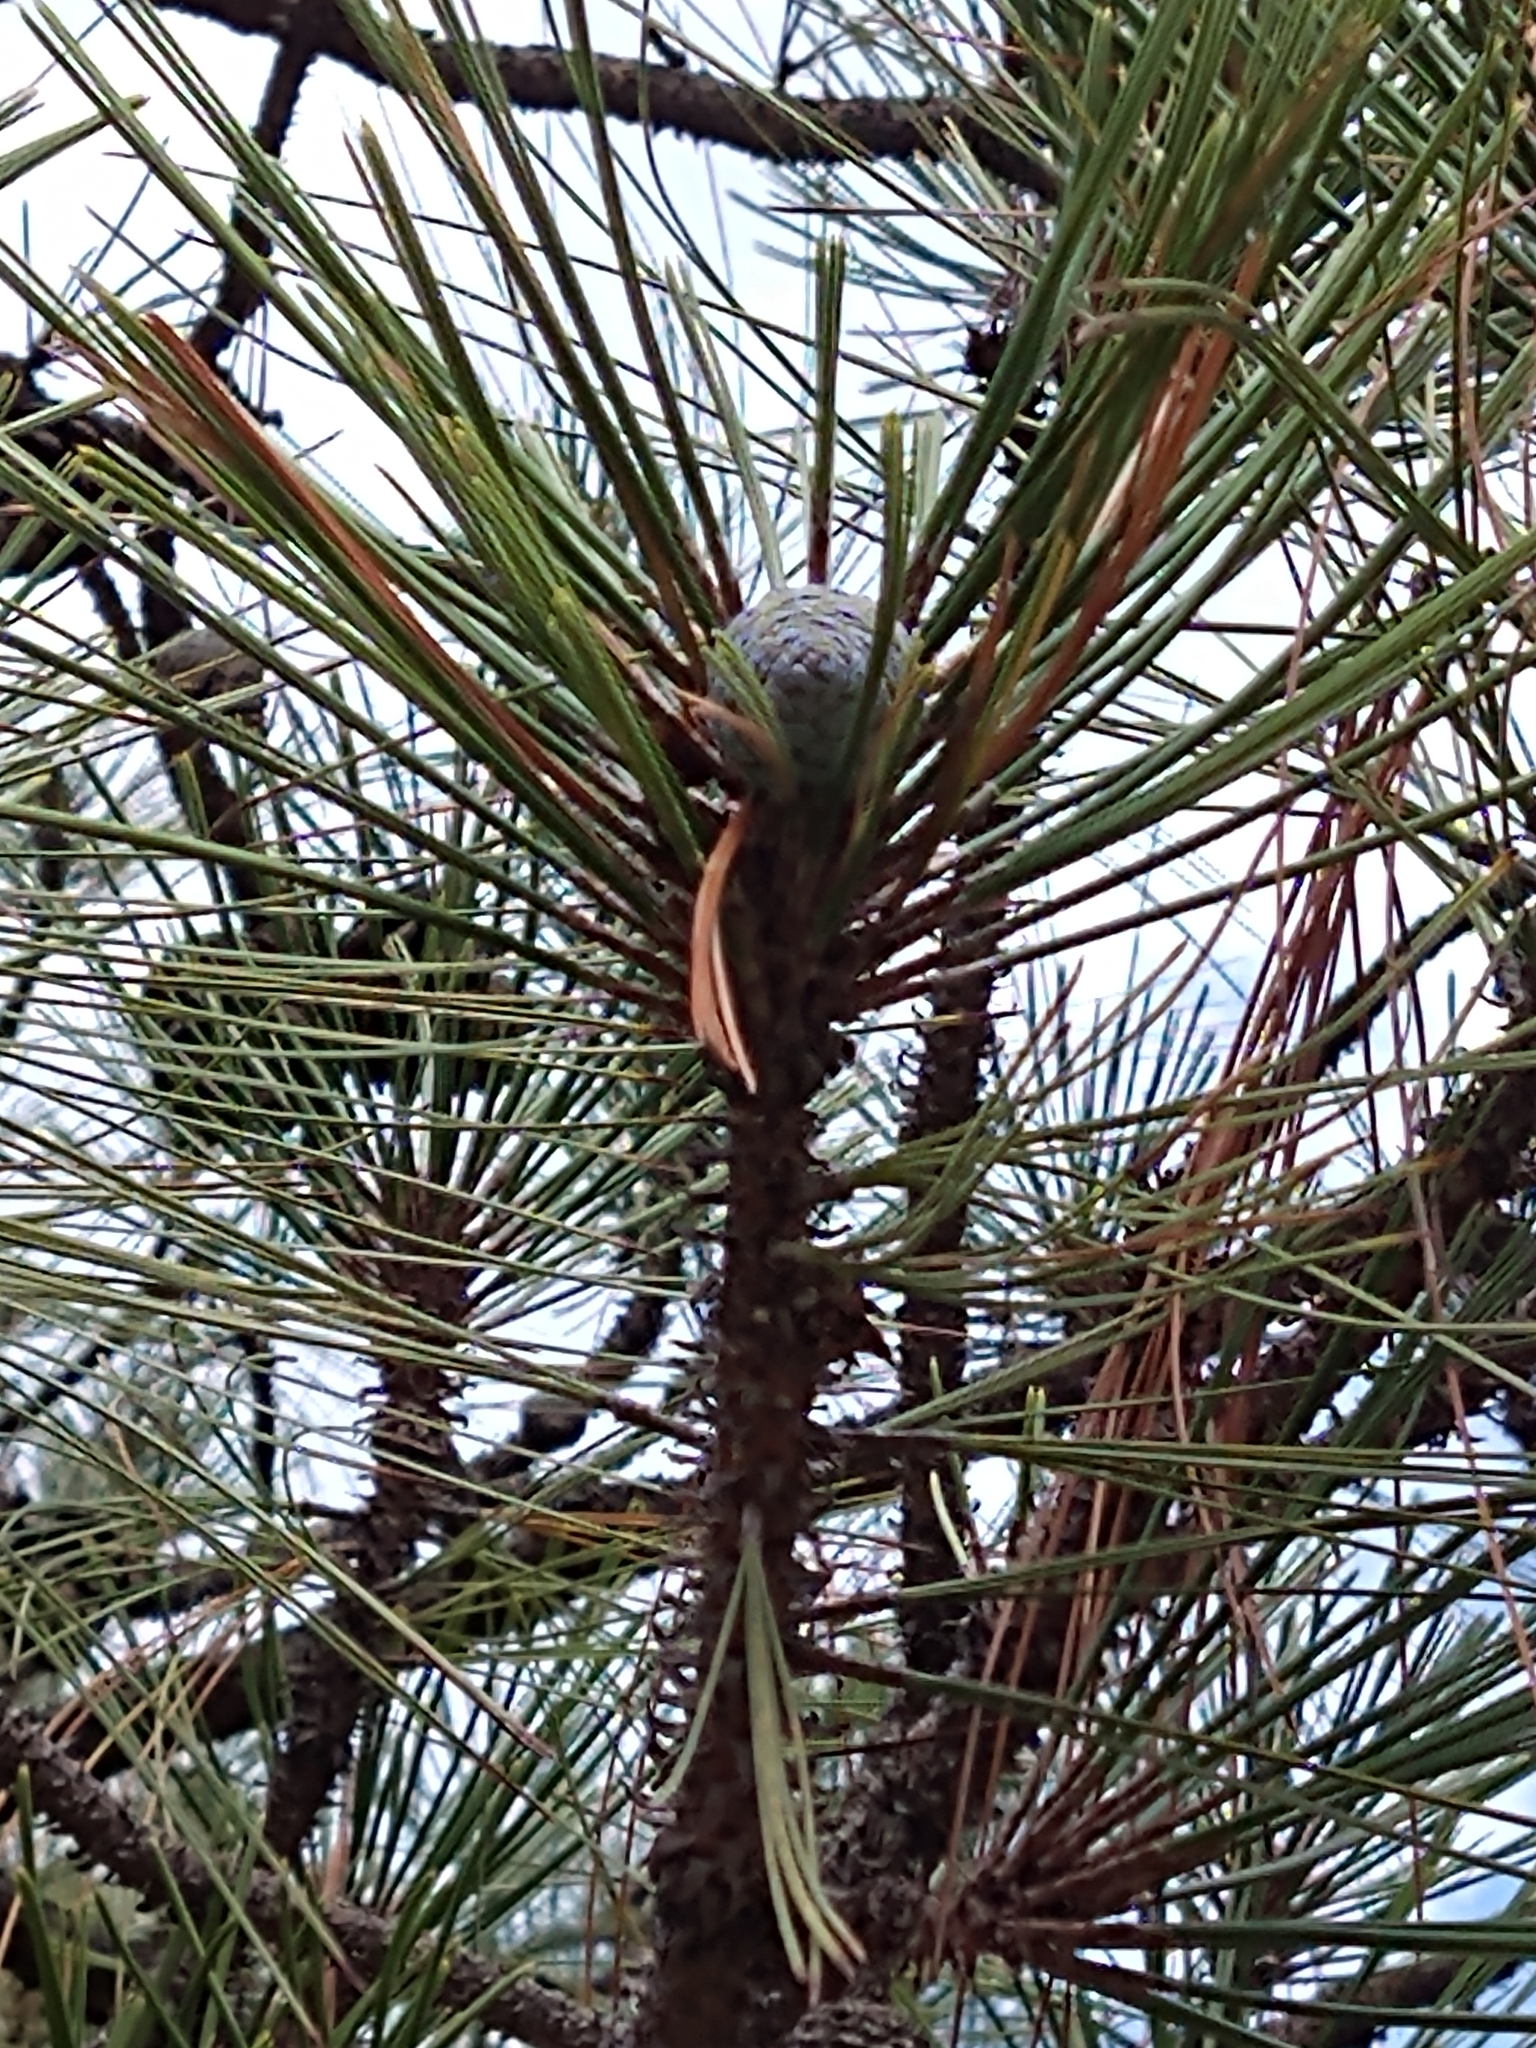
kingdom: Plantae
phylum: Tracheophyta
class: Pinopsida
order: Pinales
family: Pinaceae
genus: Pinus
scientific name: Pinus oocarpa
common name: Egg-cone pine
